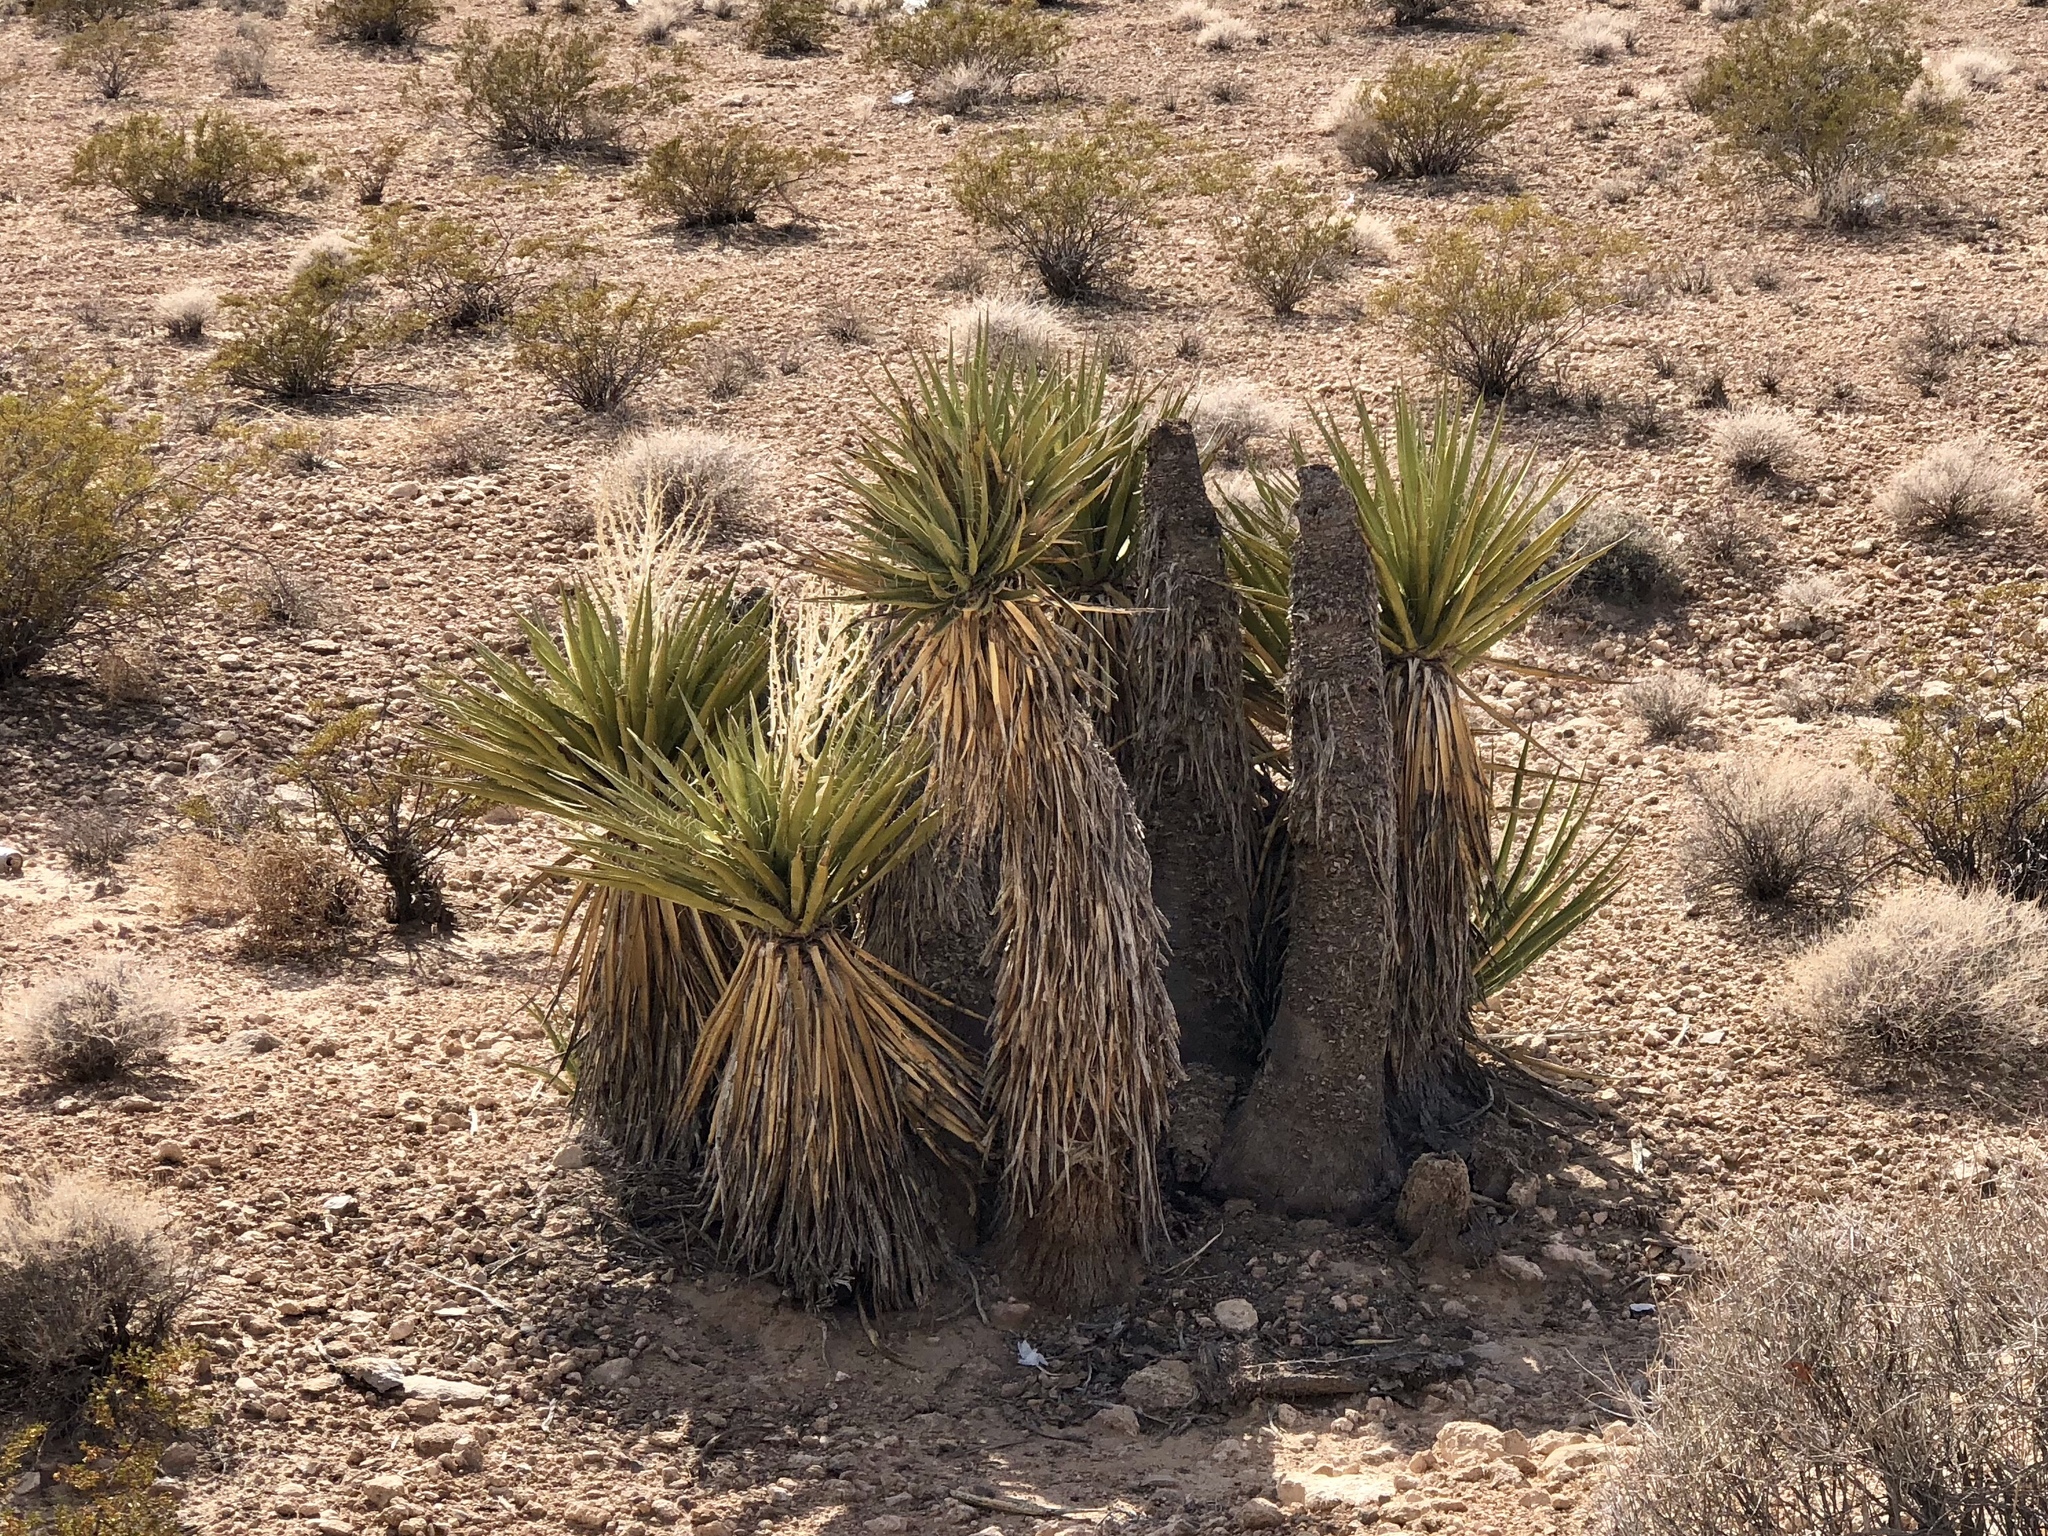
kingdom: Plantae
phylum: Tracheophyta
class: Liliopsida
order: Asparagales
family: Asparagaceae
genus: Yucca
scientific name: Yucca schidigera
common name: Mojave yucca
